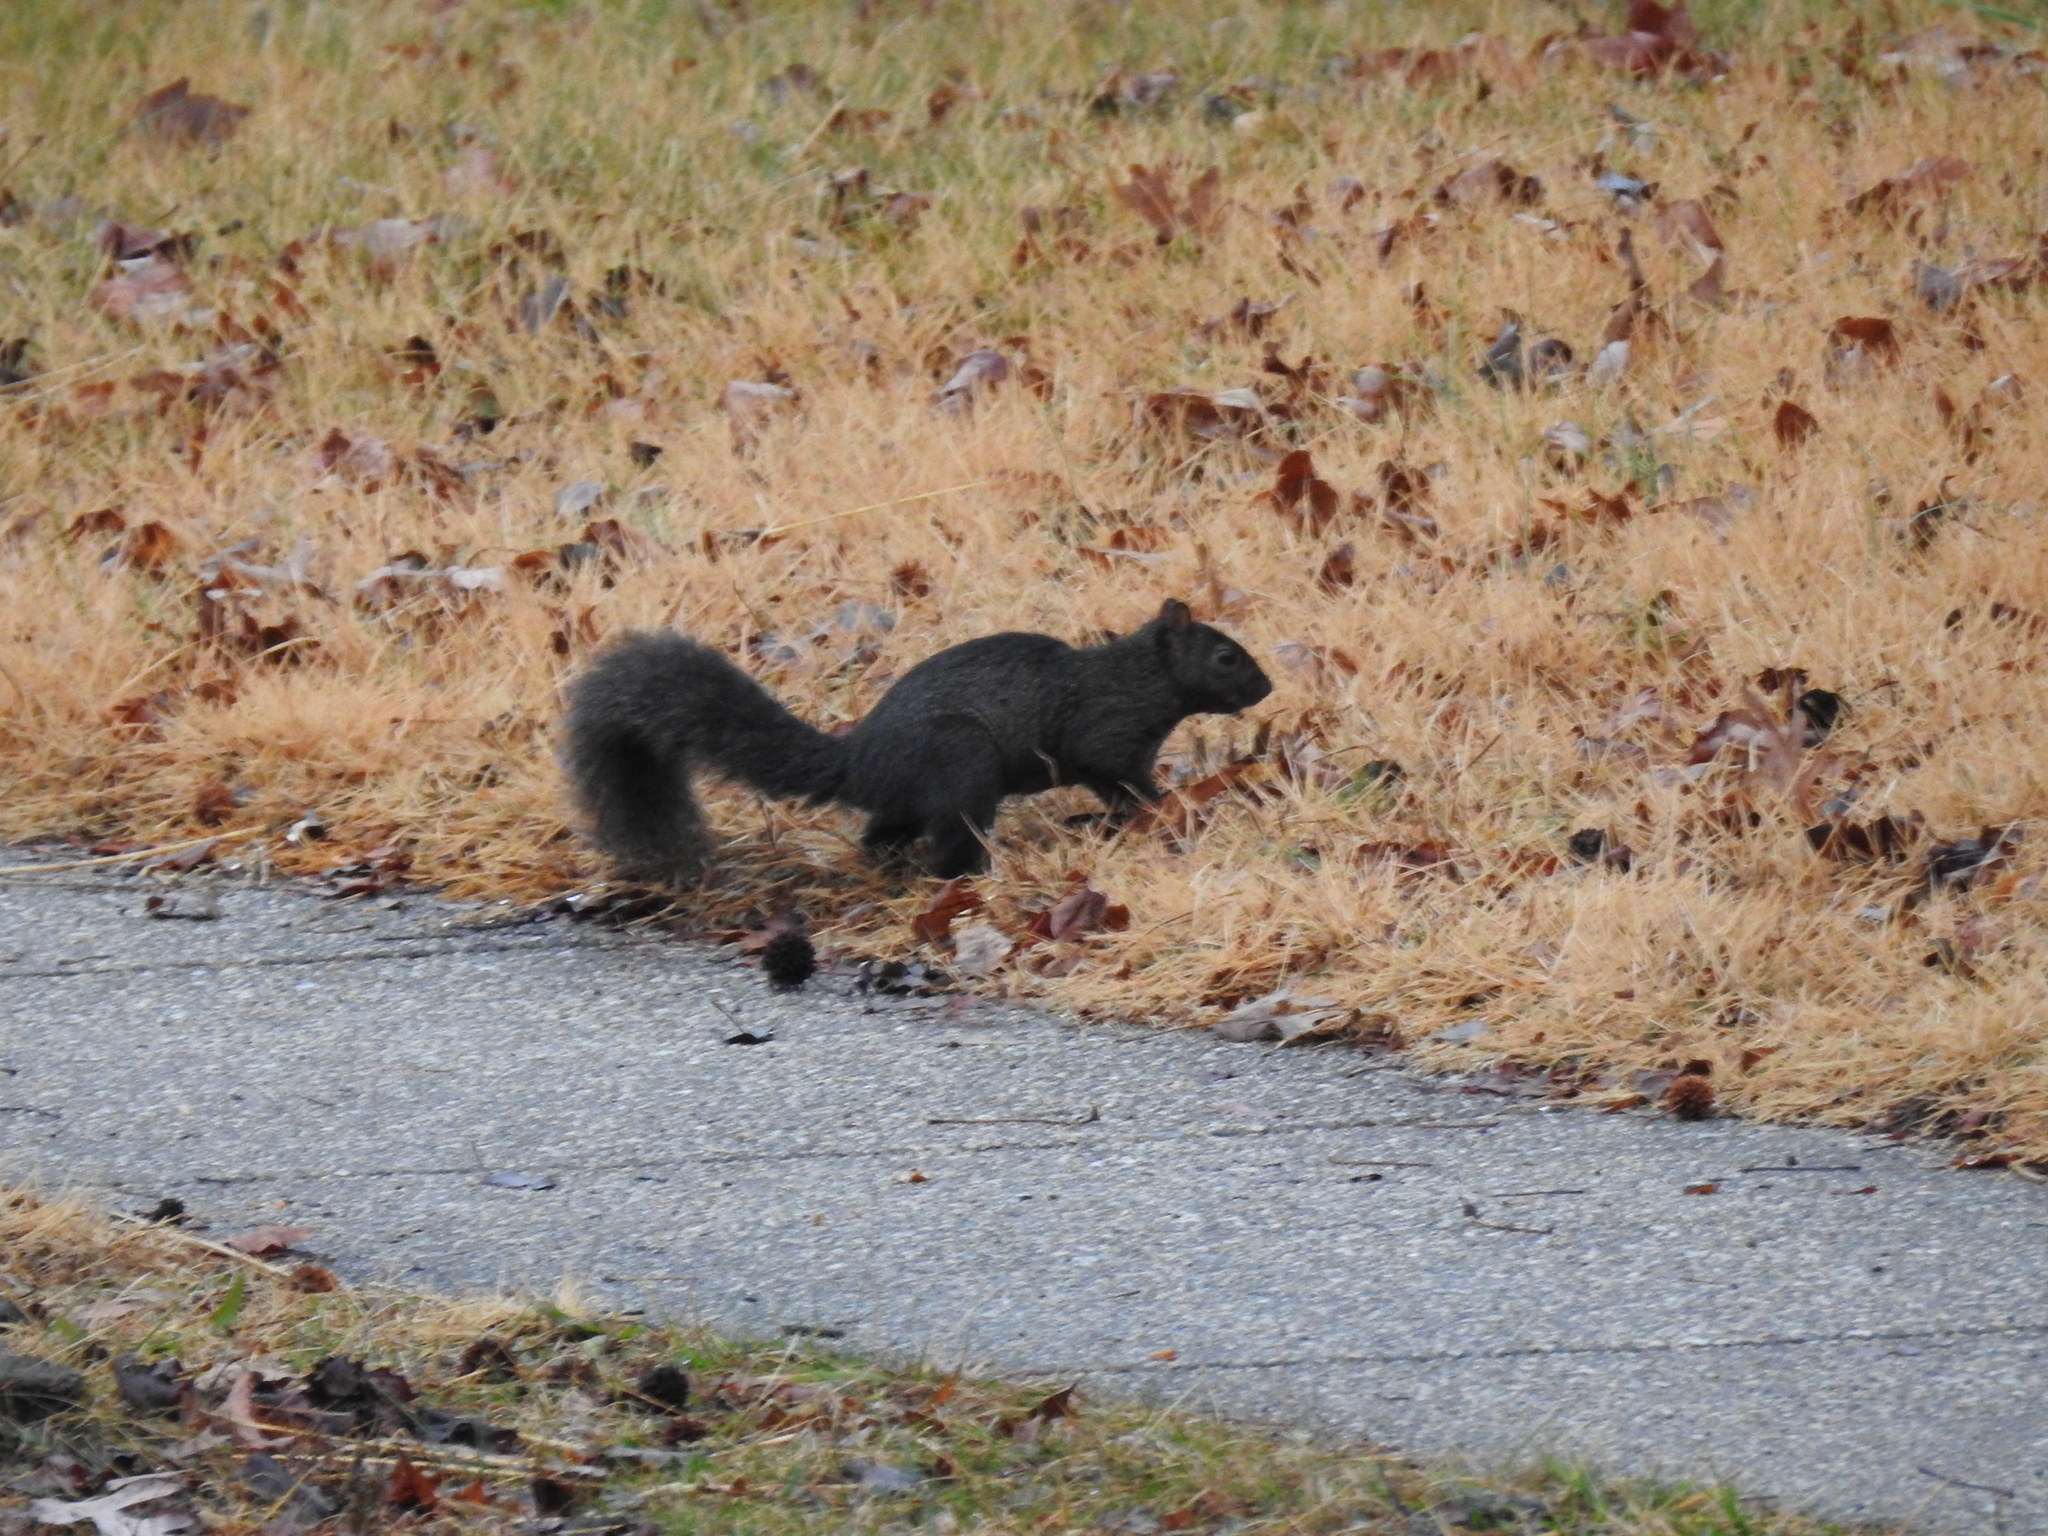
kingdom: Animalia
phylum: Chordata
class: Mammalia
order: Rodentia
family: Sciuridae
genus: Sciurus
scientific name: Sciurus carolinensis
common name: Eastern gray squirrel
